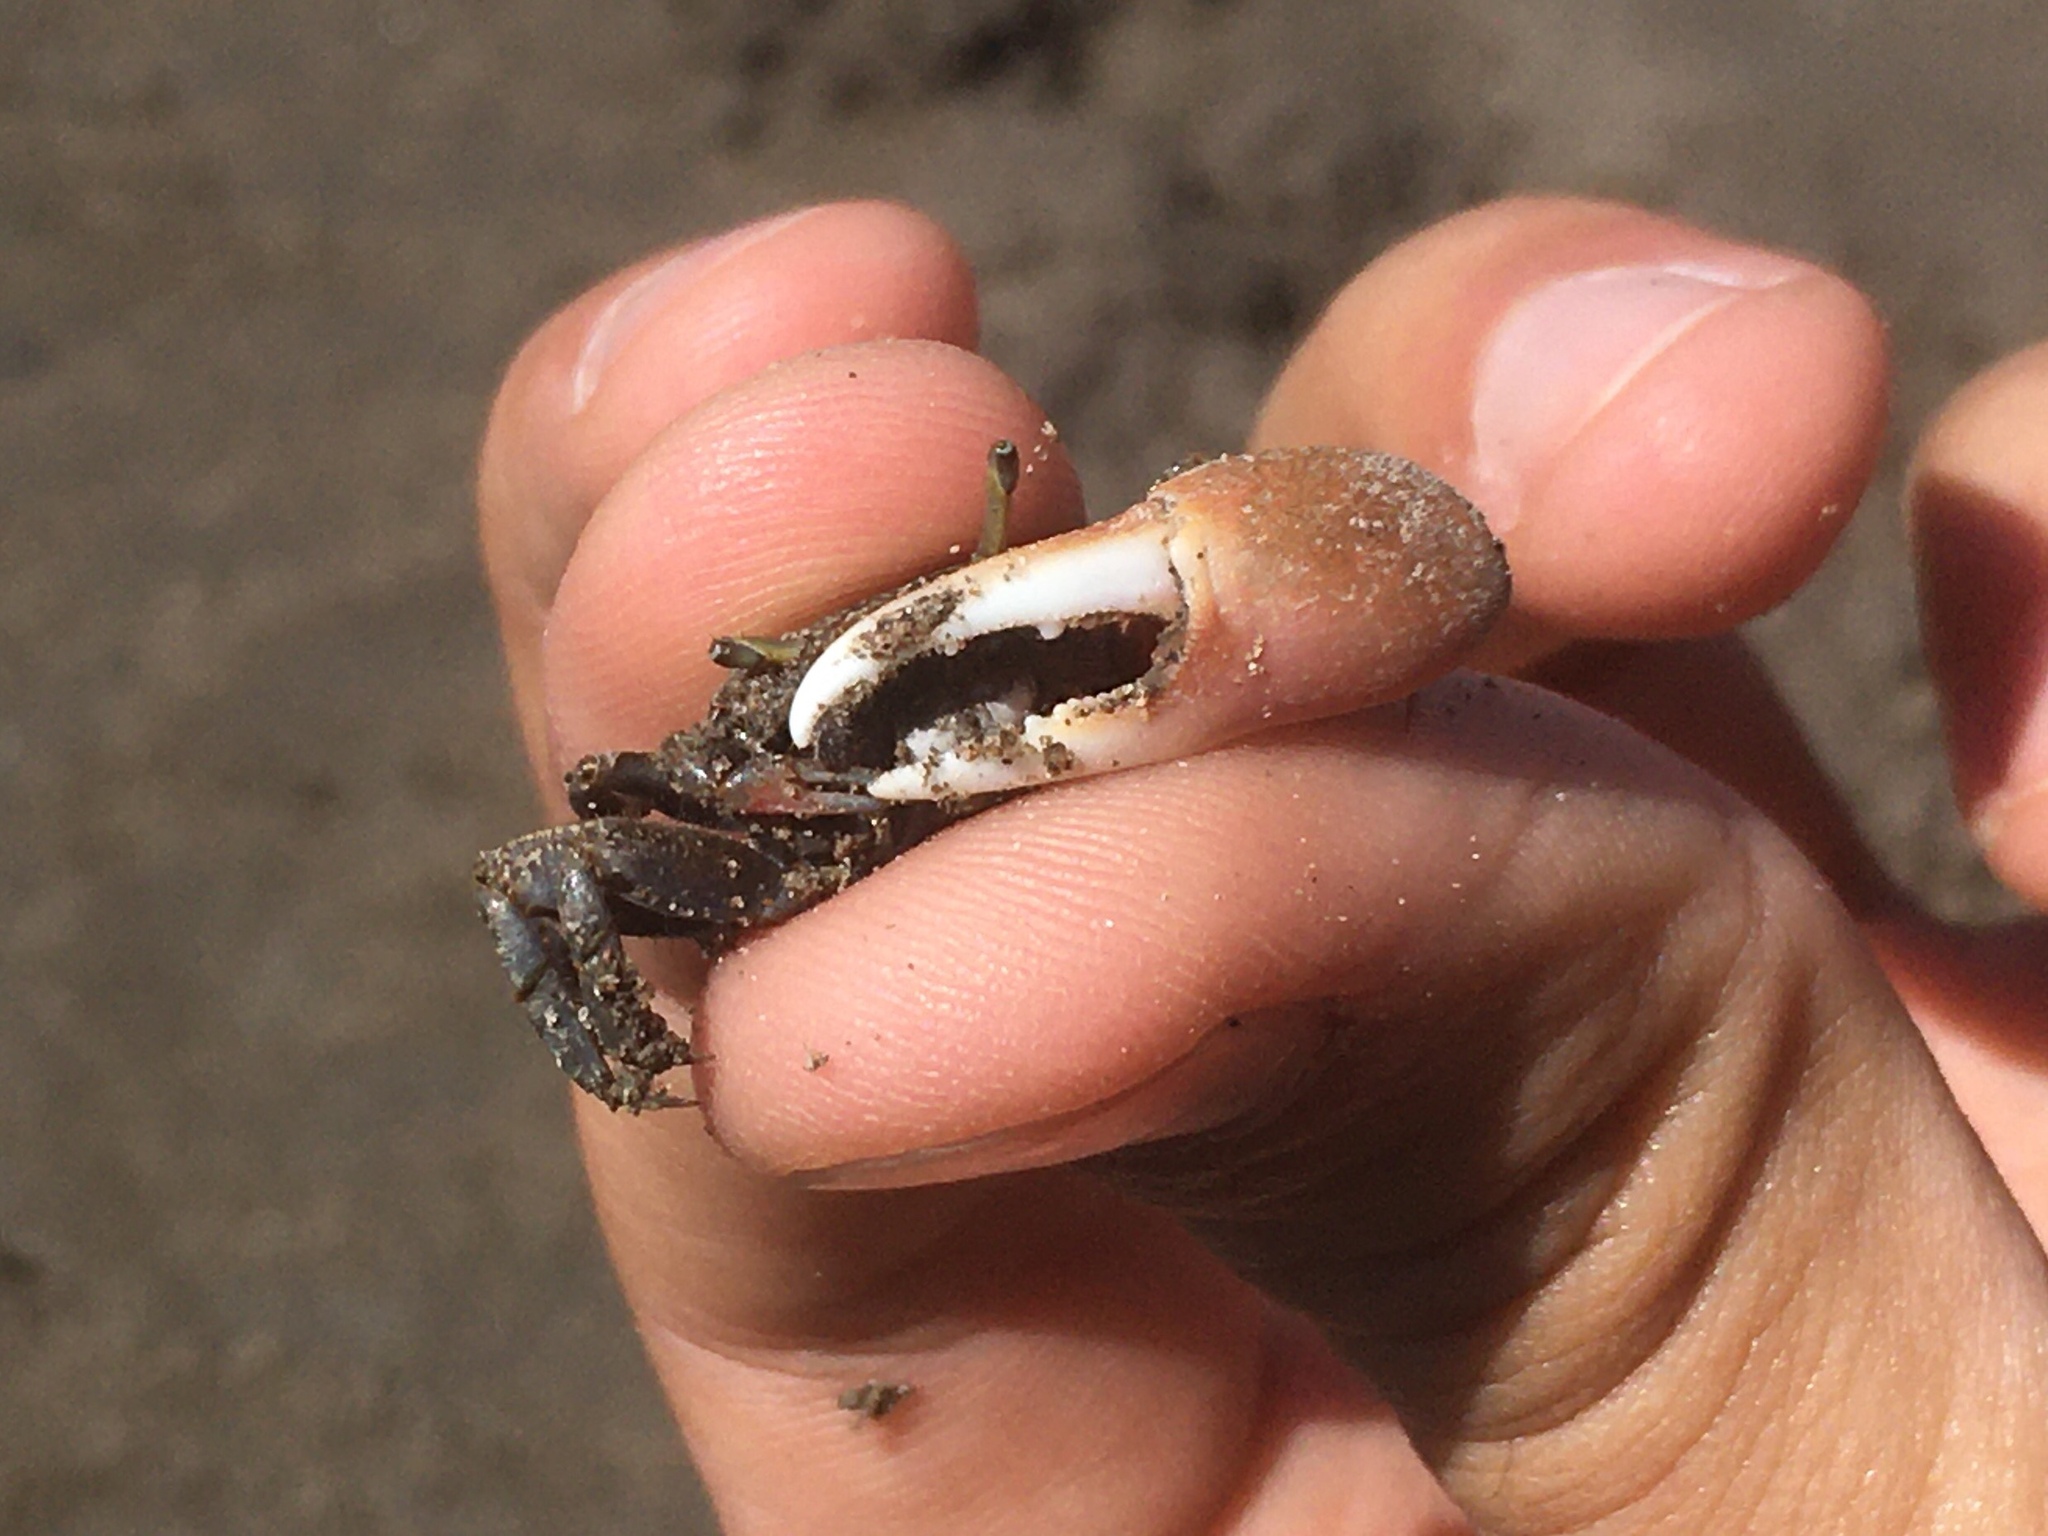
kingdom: Animalia
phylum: Arthropoda
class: Malacostraca
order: Decapoda
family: Ocypodidae
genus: Leptuca
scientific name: Leptuca uruguayensis
